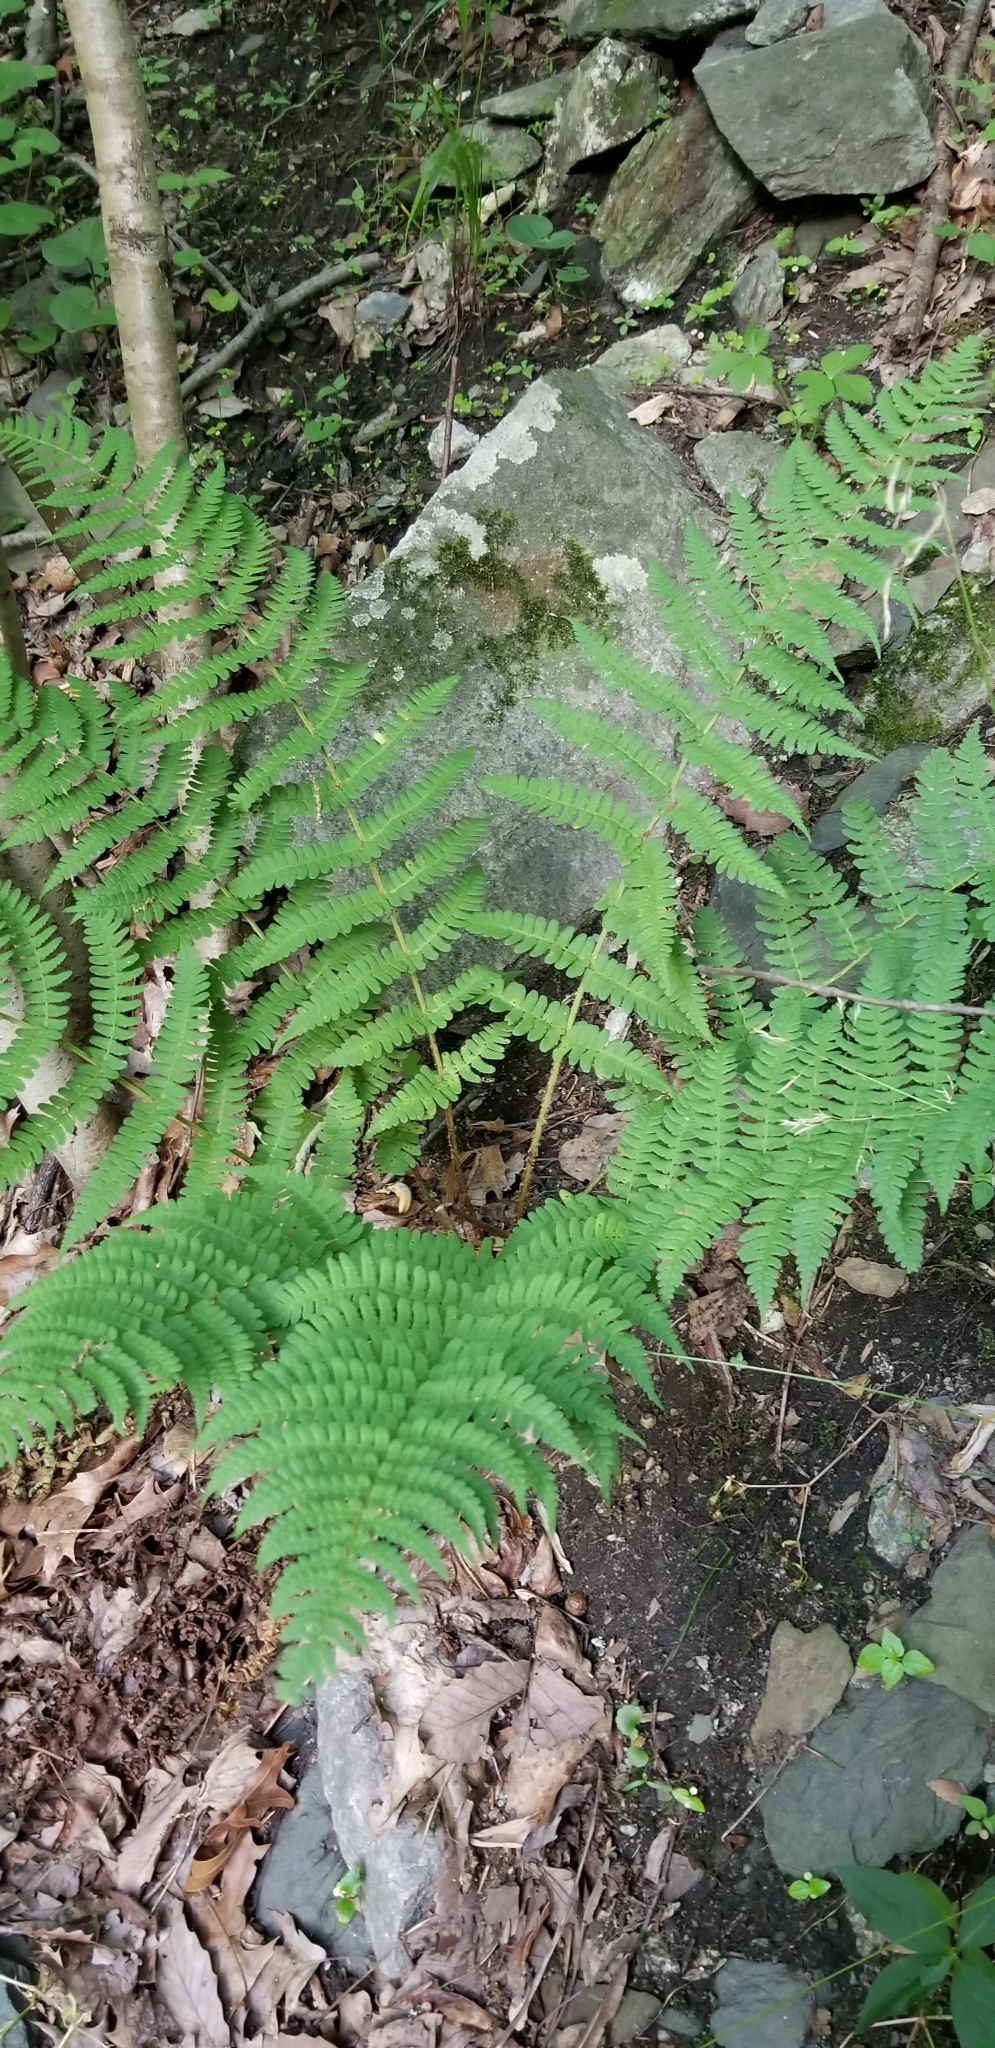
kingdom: Plantae
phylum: Tracheophyta
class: Polypodiopsida
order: Polypodiales
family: Dryopteridaceae
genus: Dryopteris
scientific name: Dryopteris marginalis
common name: Marginal wood fern
